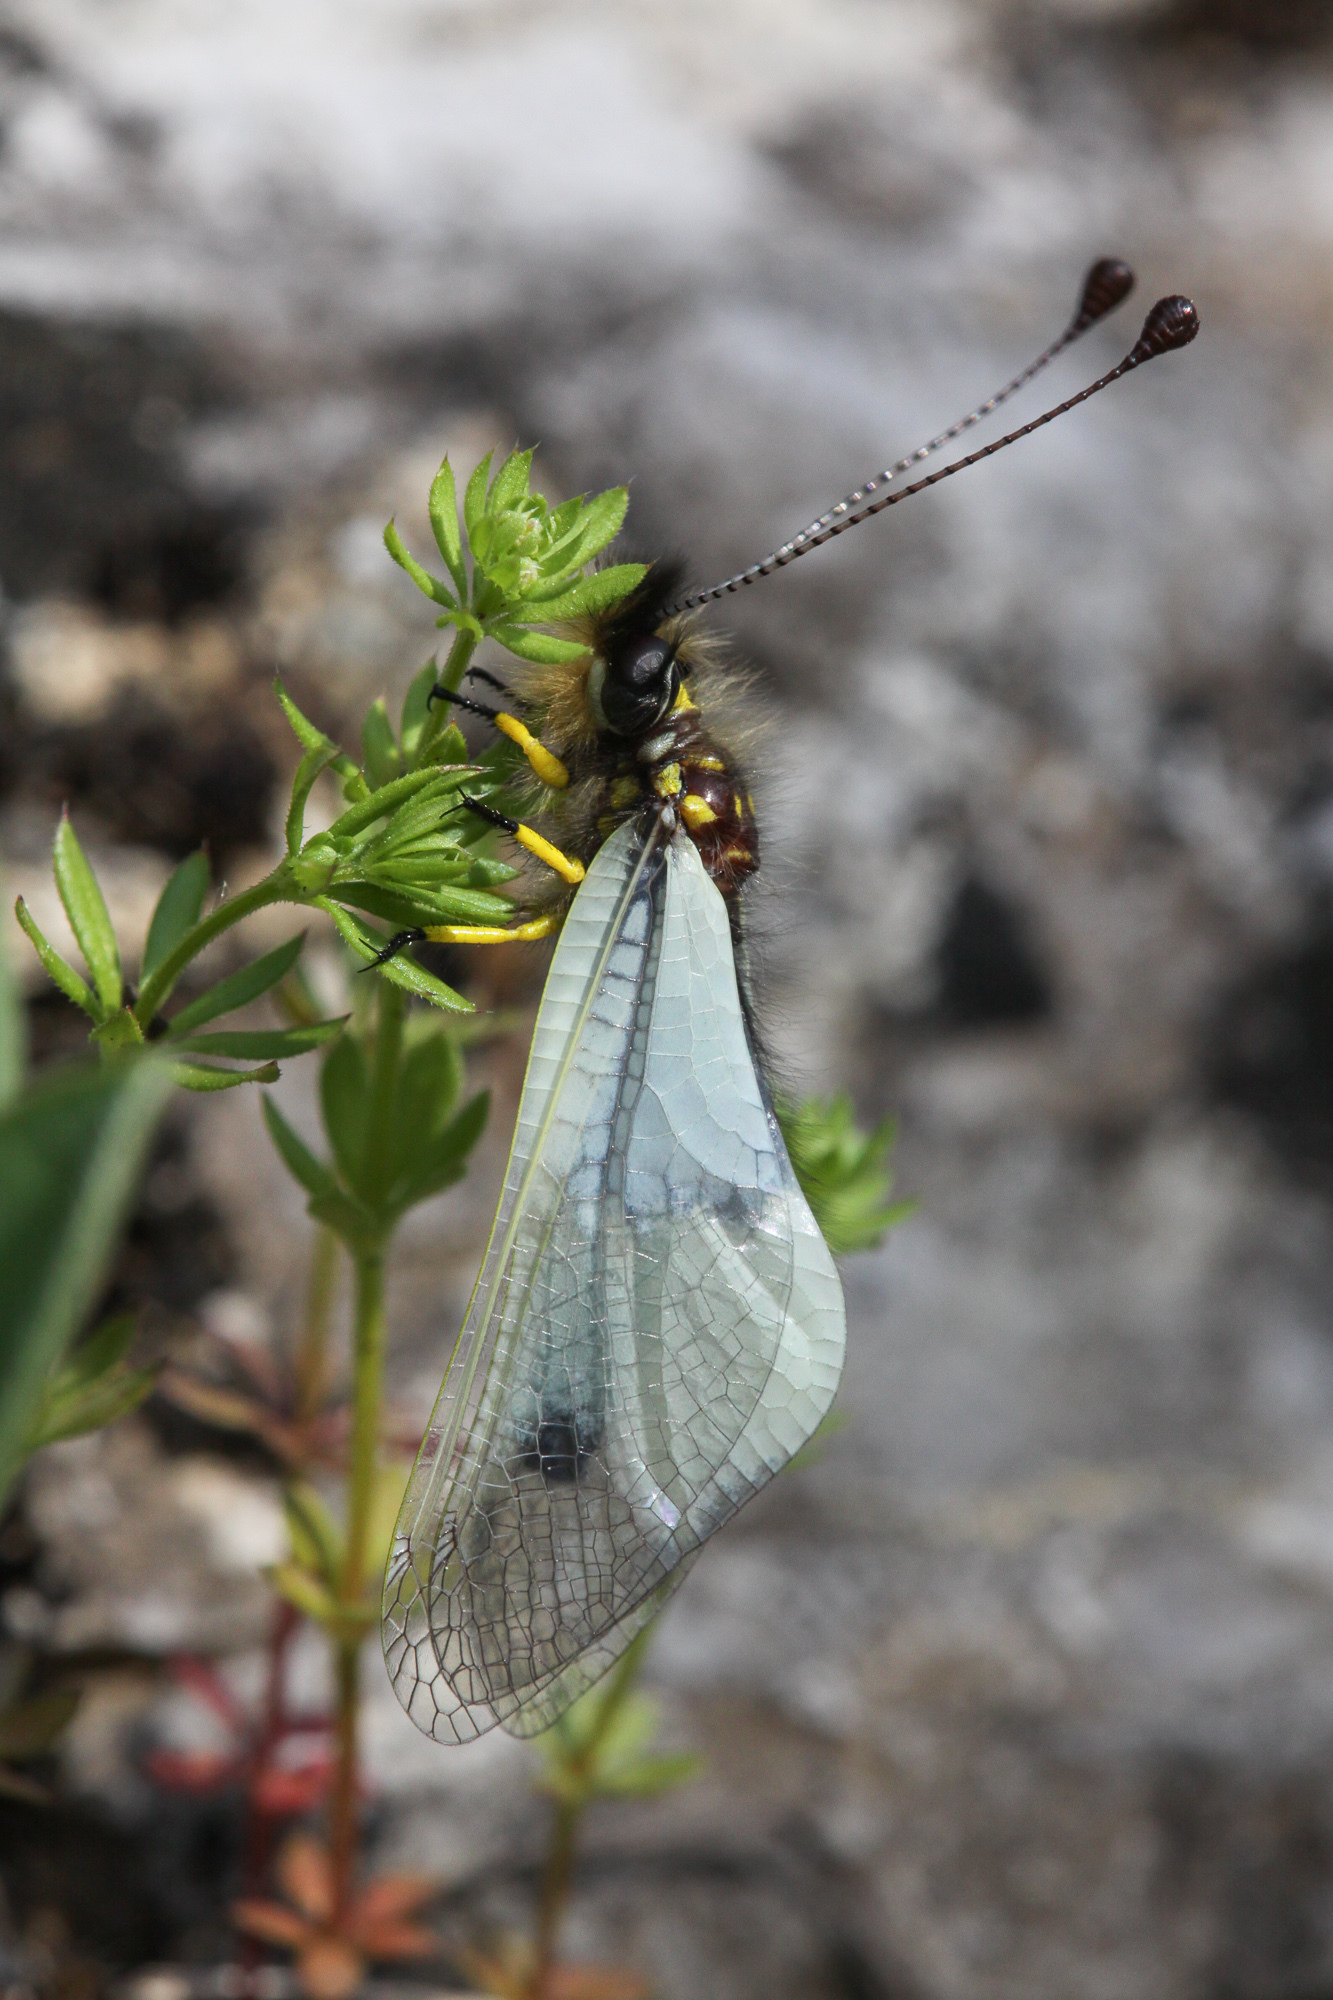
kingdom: Animalia
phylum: Arthropoda
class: Insecta
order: Neuroptera
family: Ascalaphidae
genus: Libelloides
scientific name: Libelloides lacteus
